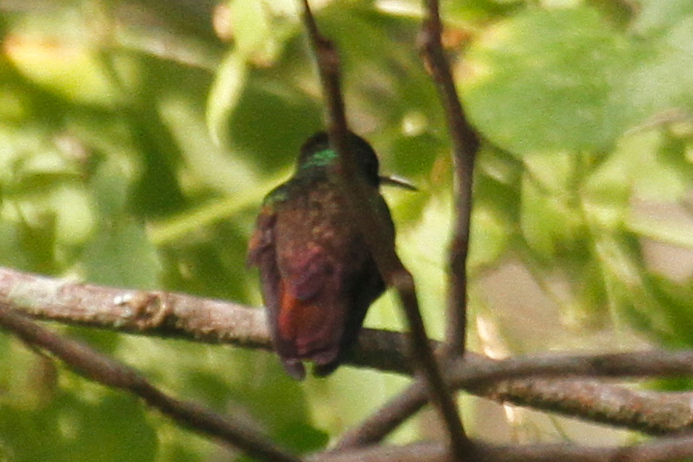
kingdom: Animalia
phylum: Chordata
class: Aves
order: Apodiformes
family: Trochilidae
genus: Saucerottia
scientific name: Saucerottia beryllina
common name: Berylline hummingbird
